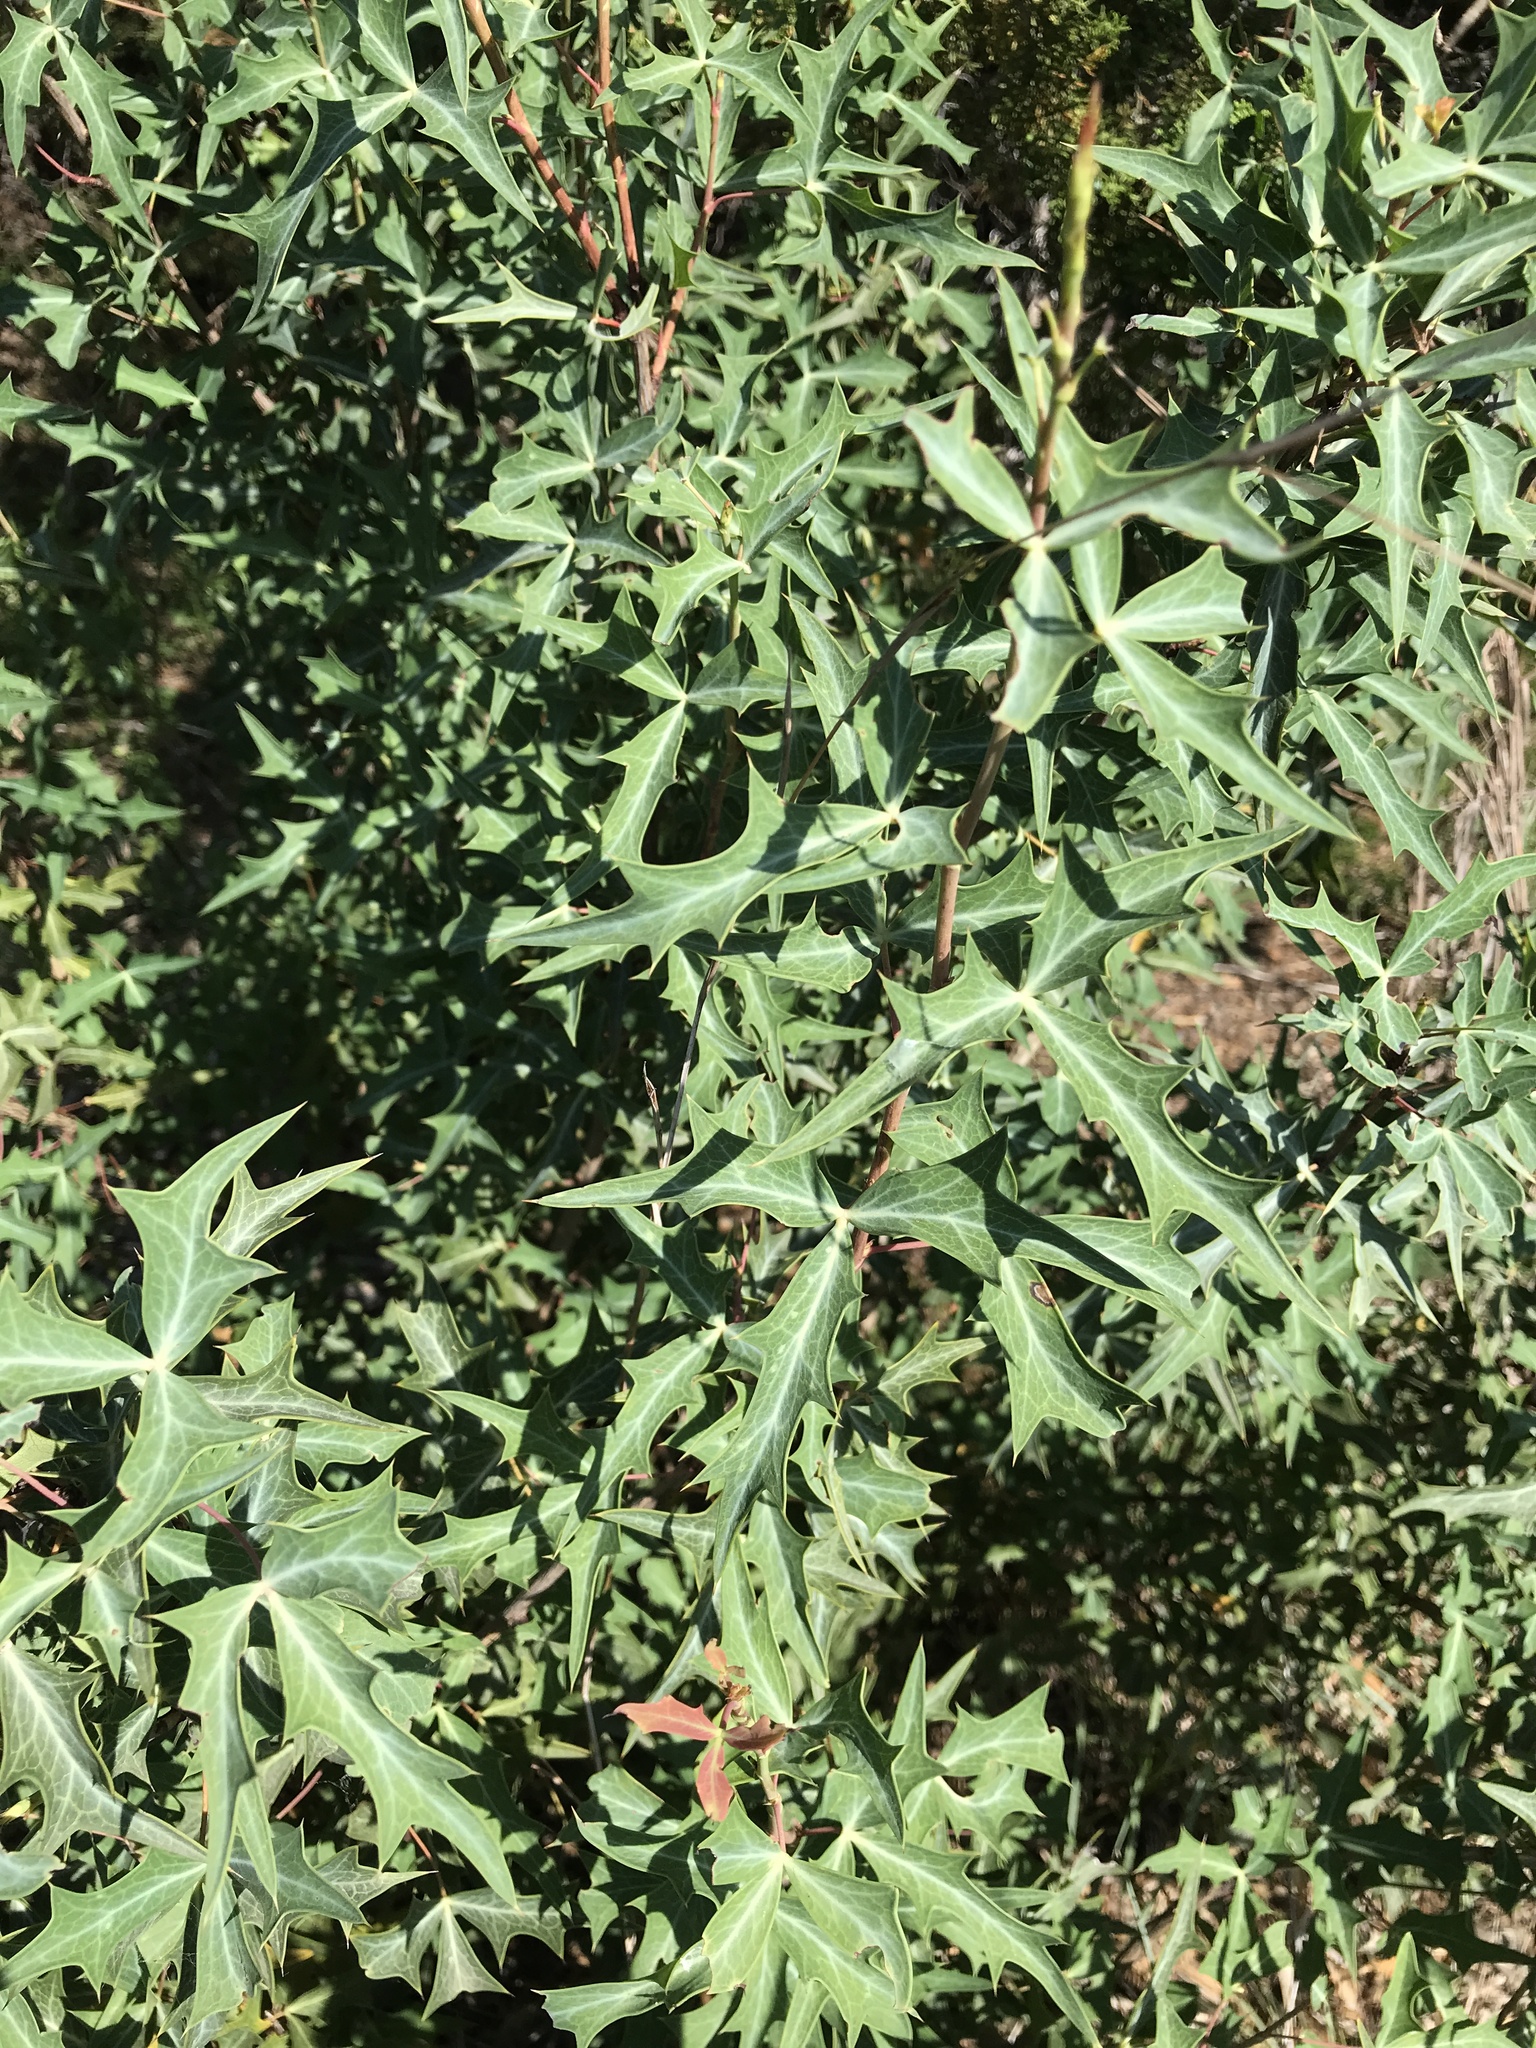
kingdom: Plantae
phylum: Tracheophyta
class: Magnoliopsida
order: Ranunculales
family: Berberidaceae
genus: Alloberberis
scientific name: Alloberberis trifoliolata
